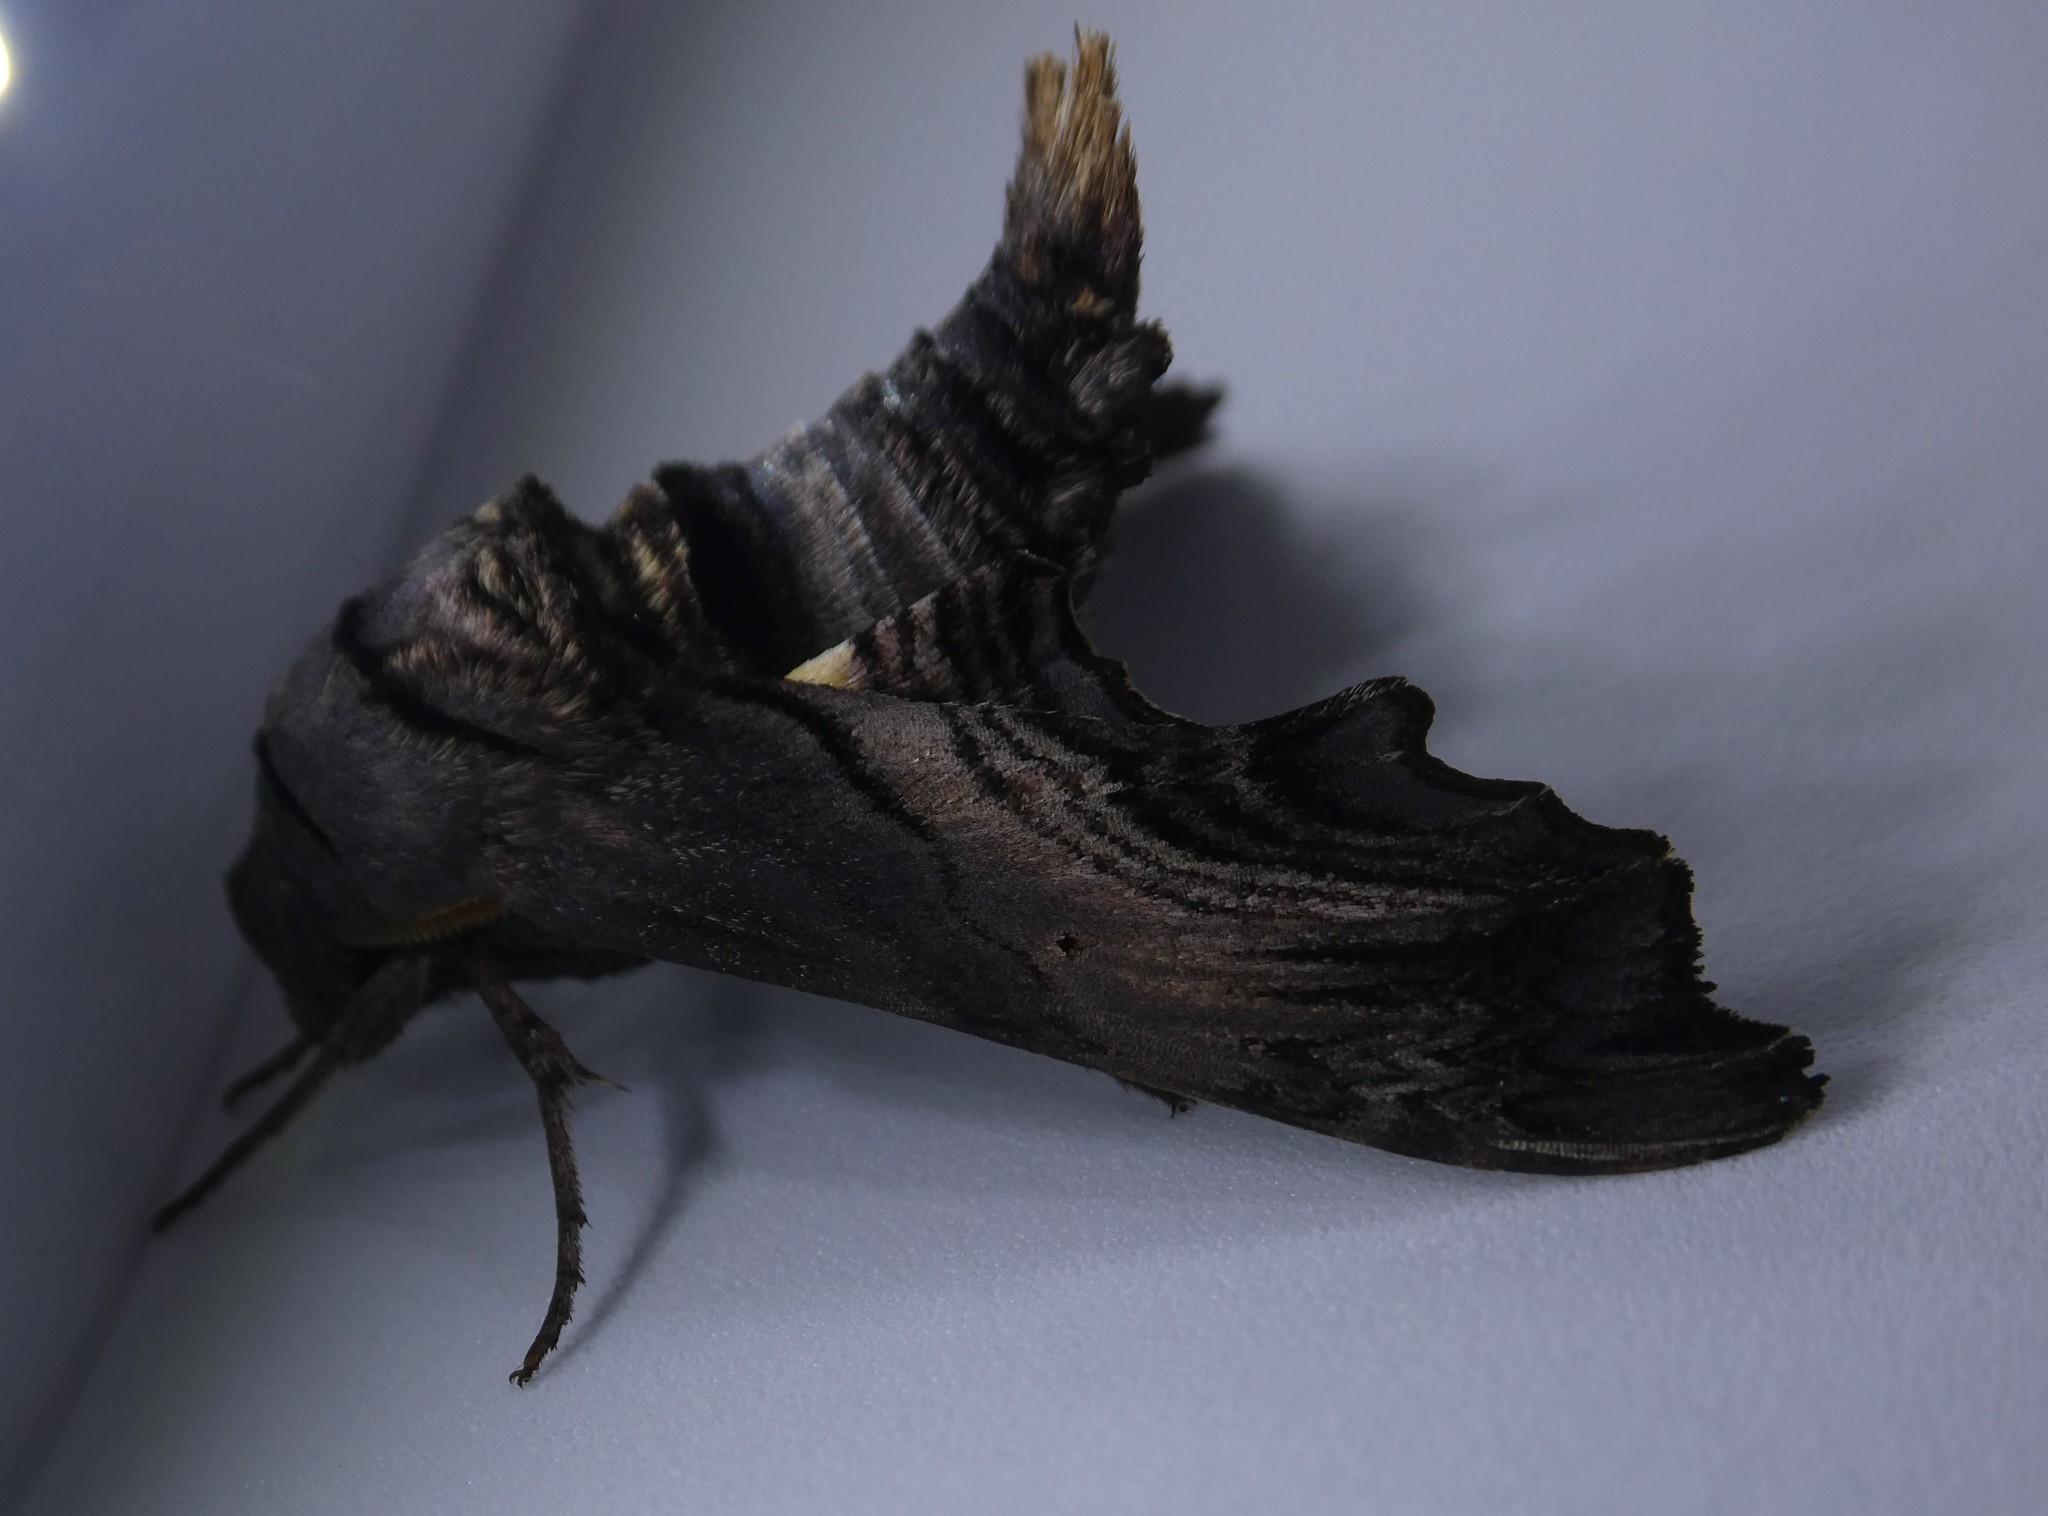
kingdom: Animalia
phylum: Arthropoda
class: Insecta
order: Lepidoptera
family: Sphingidae
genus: Sphecodina
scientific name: Sphecodina abbottii
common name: Abbott's sphinx
